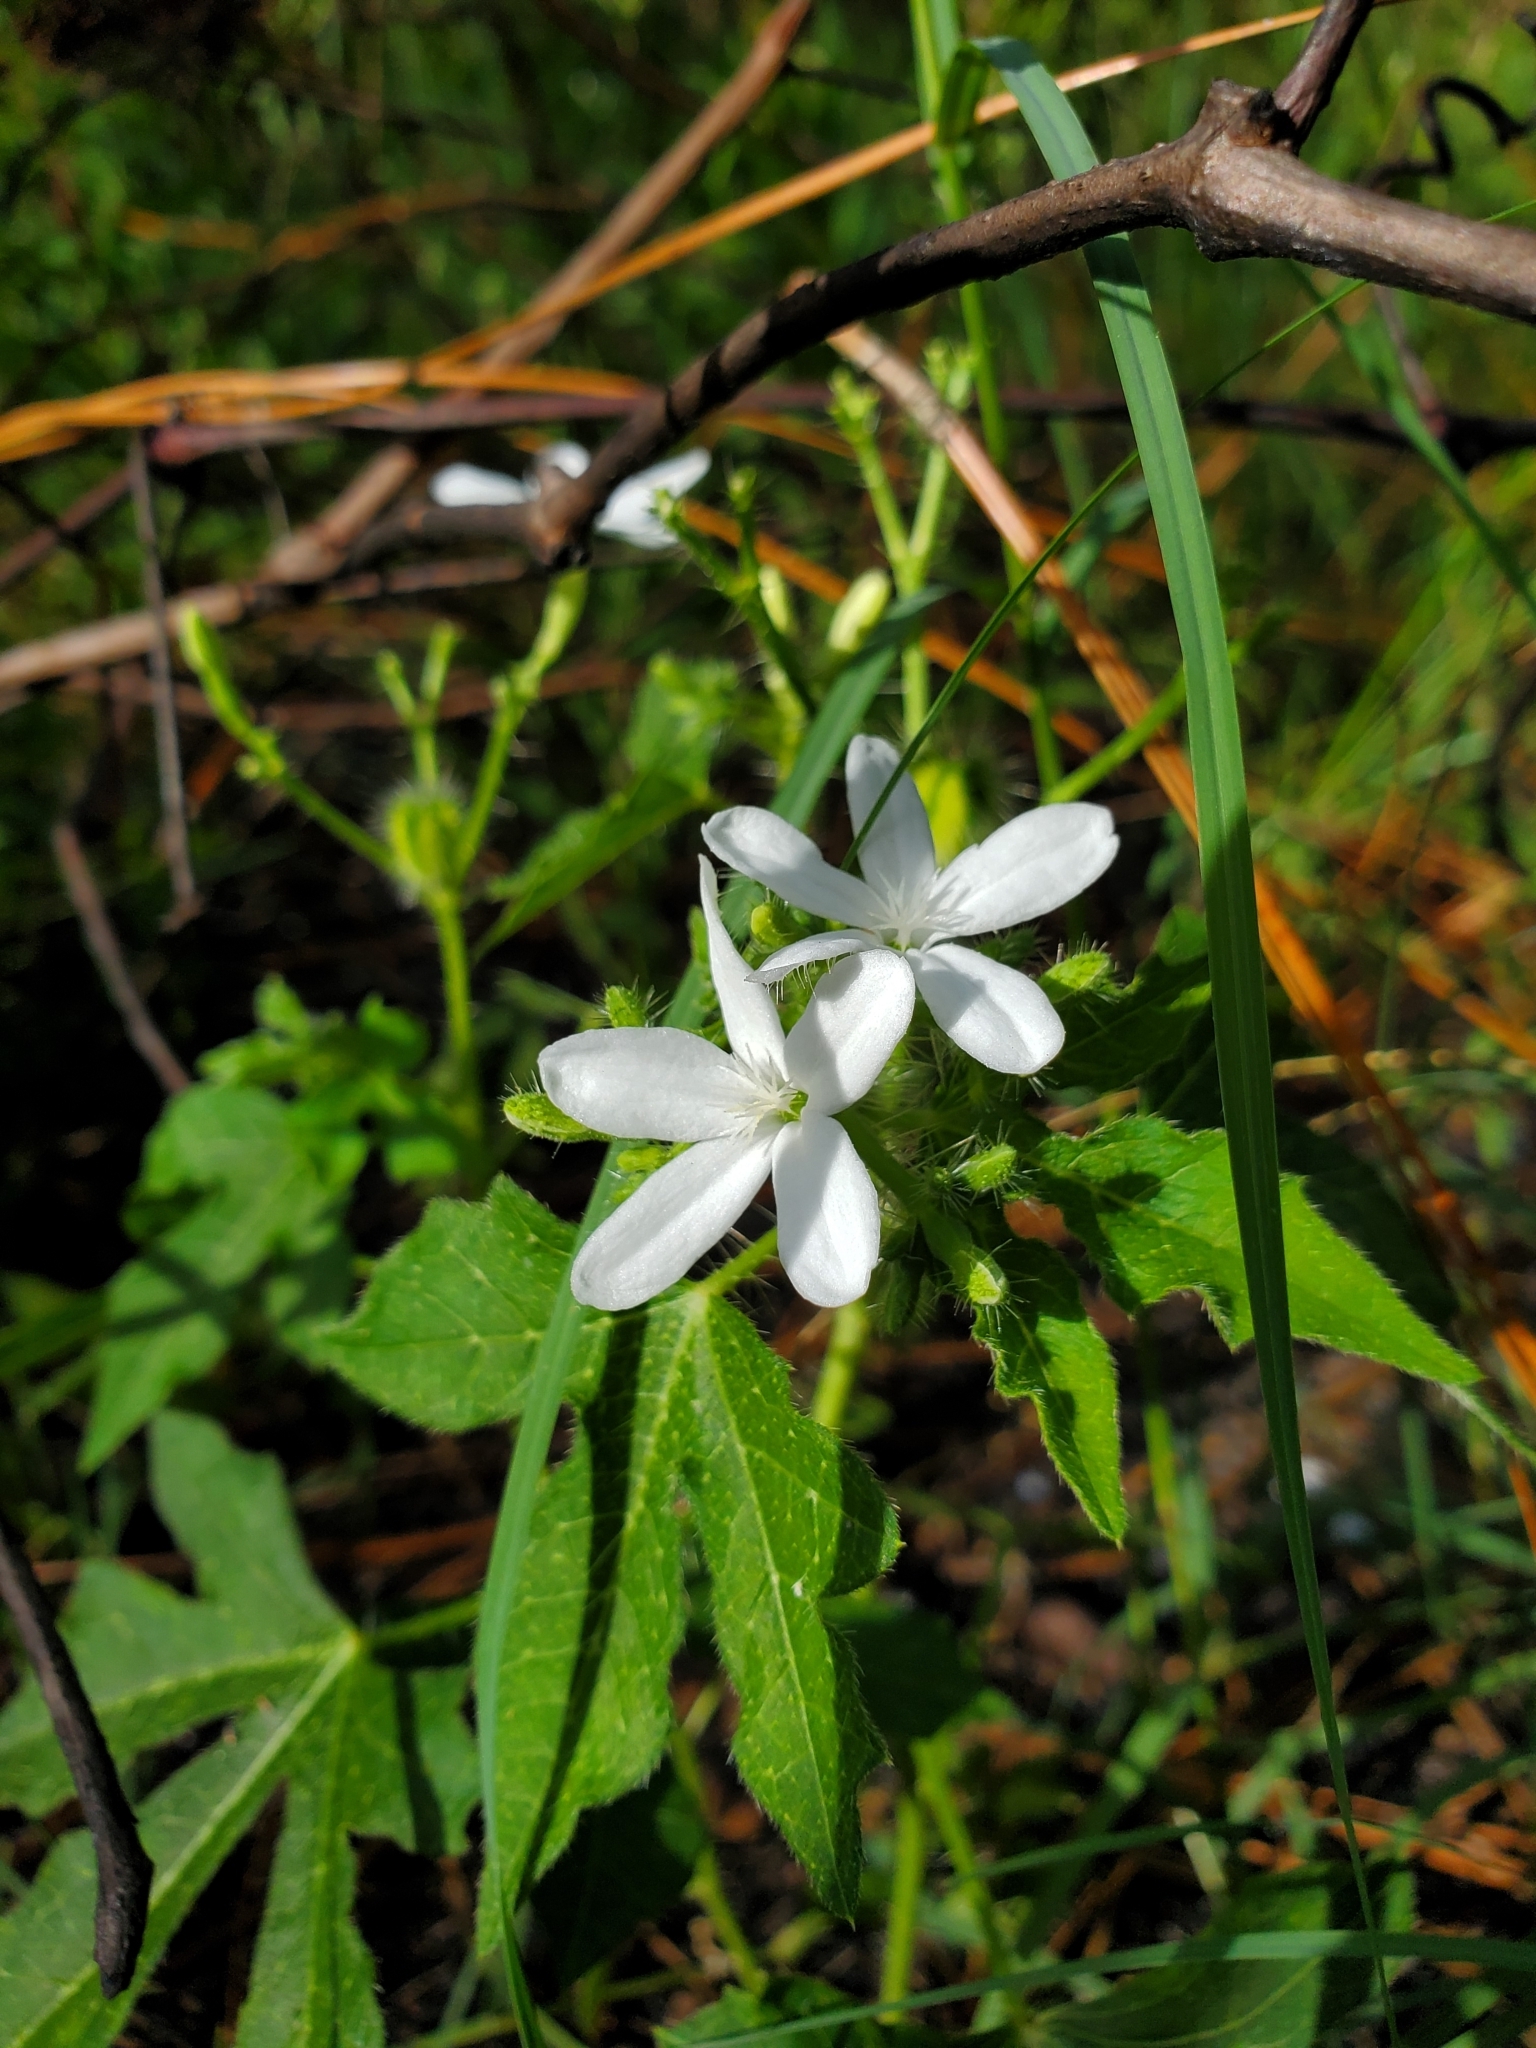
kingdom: Plantae
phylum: Tracheophyta
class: Magnoliopsida
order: Malpighiales
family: Euphorbiaceae
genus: Cnidoscolus
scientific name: Cnidoscolus stimulosus
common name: Bull-nettle
